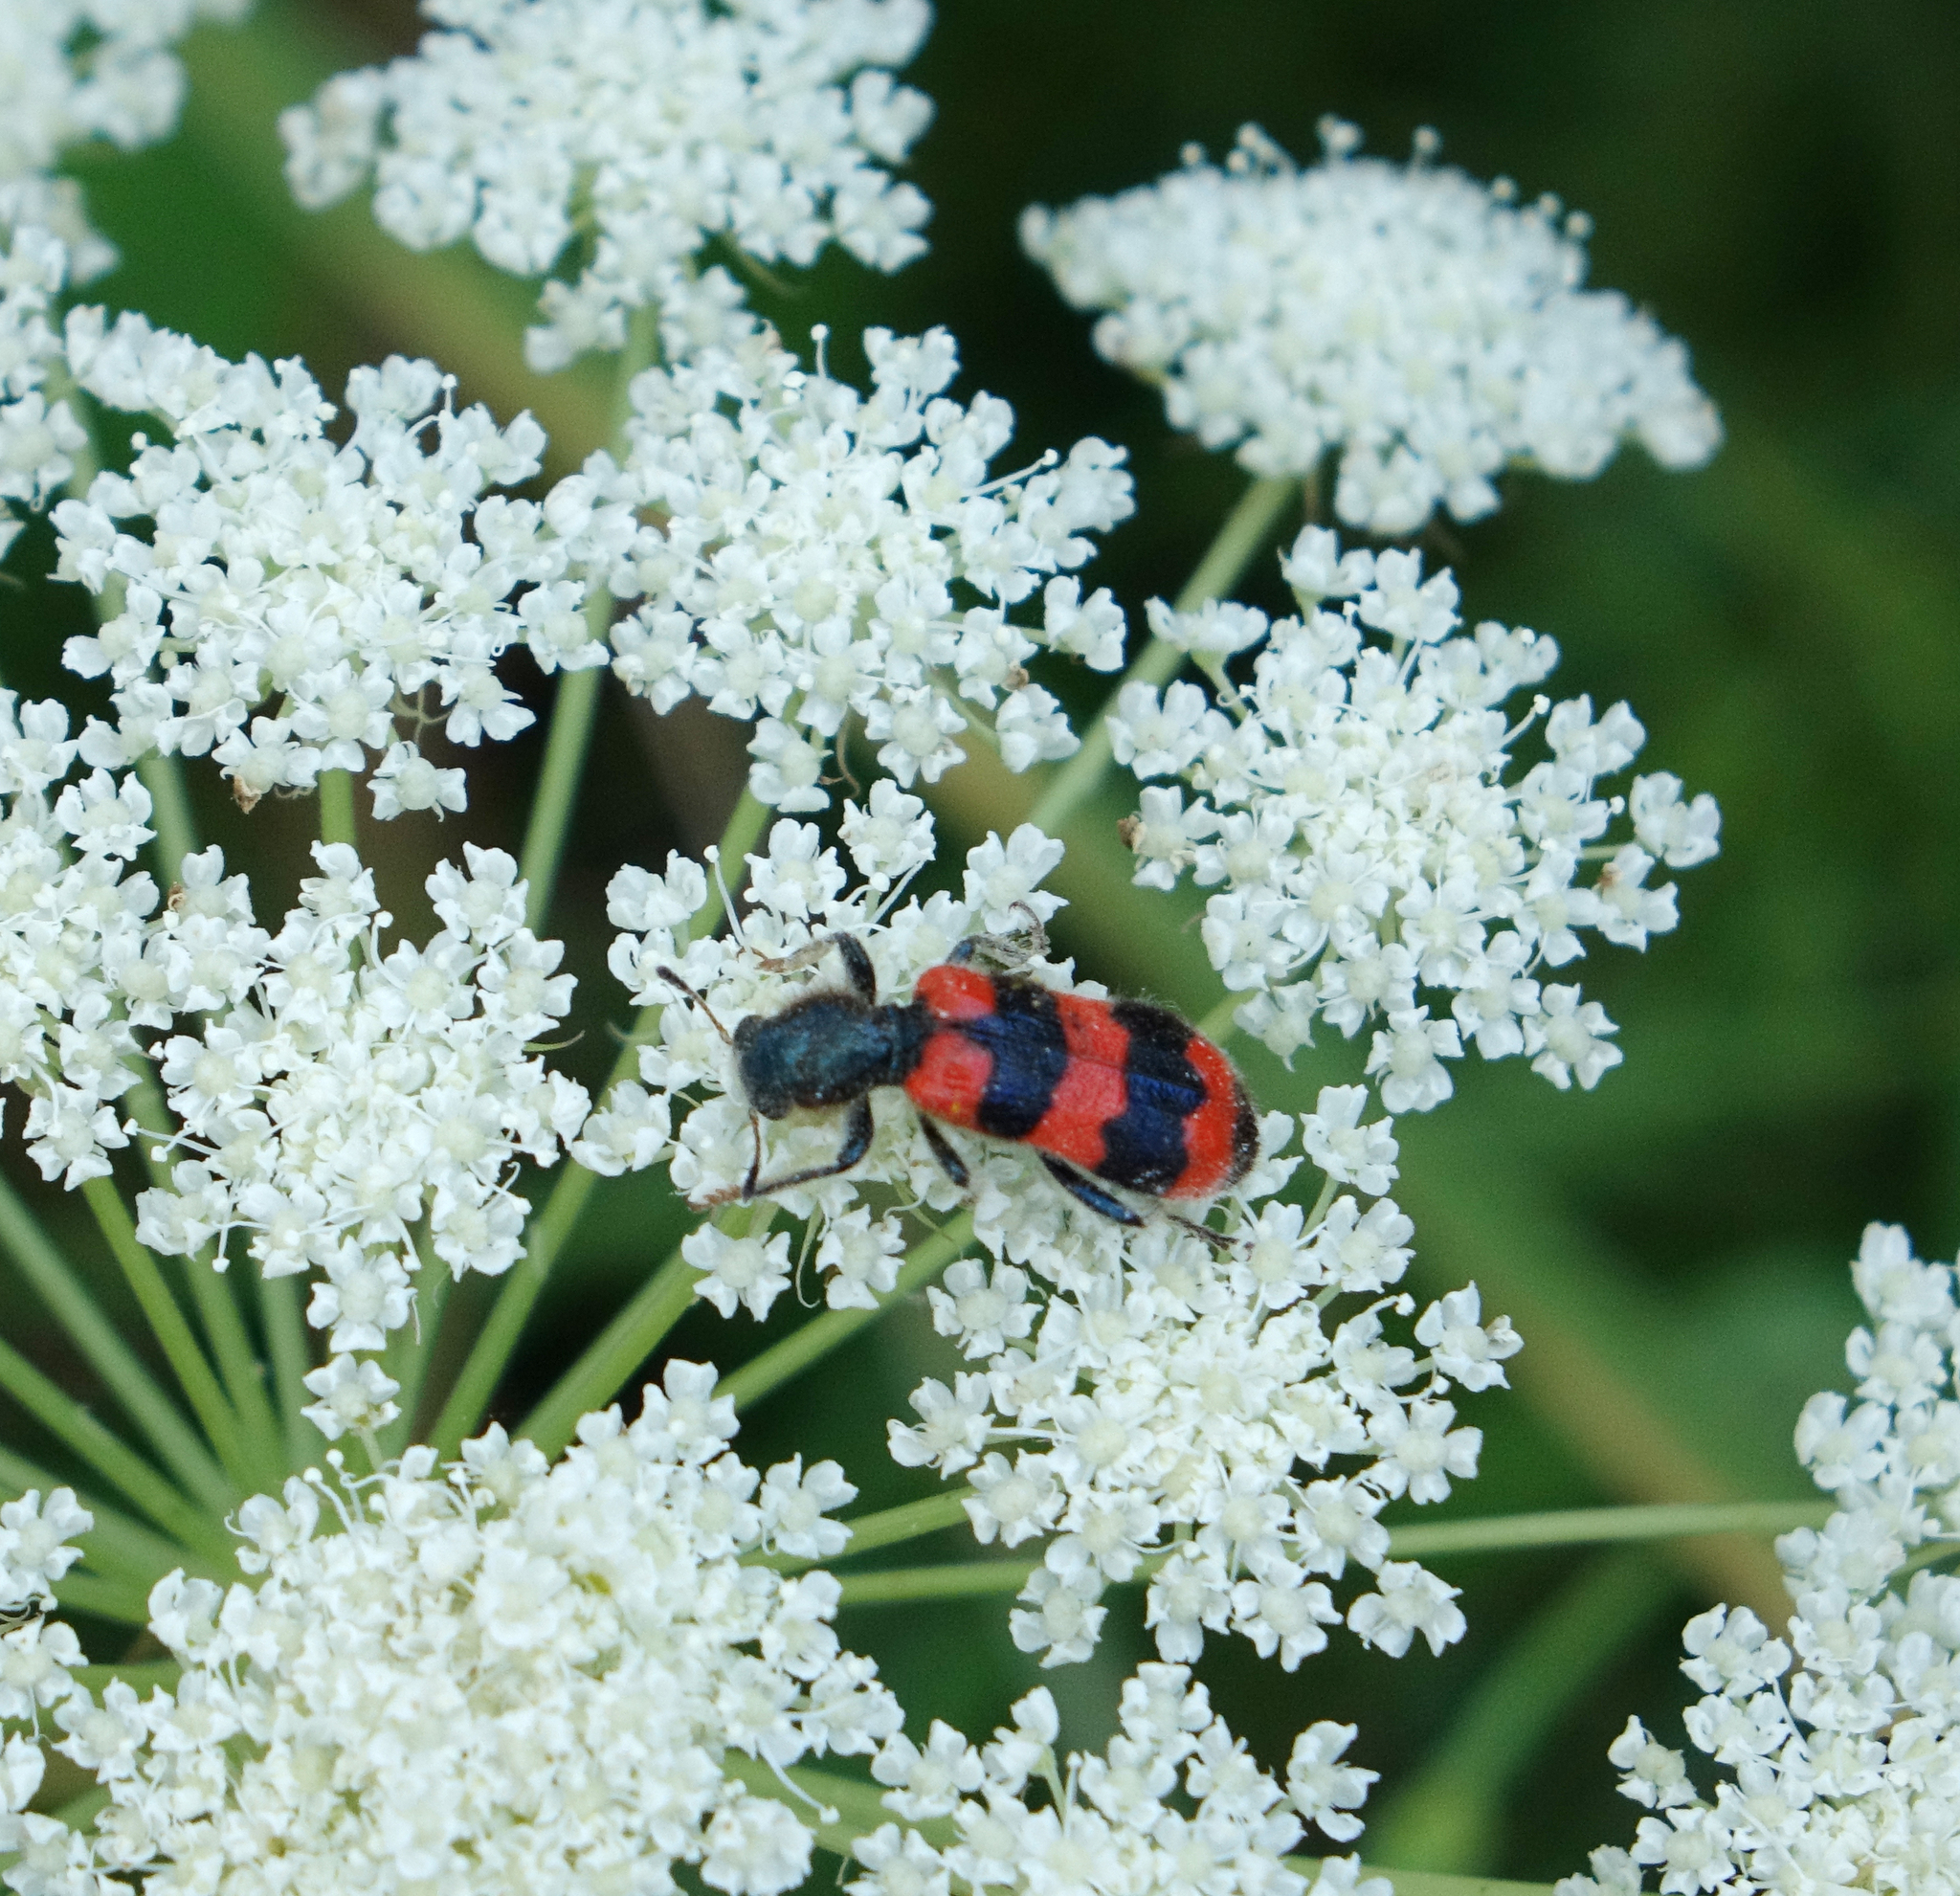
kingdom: Animalia
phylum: Arthropoda
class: Insecta
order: Coleoptera
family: Cleridae
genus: Trichodes
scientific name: Trichodes apiarius
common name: Bee-eating beetle
